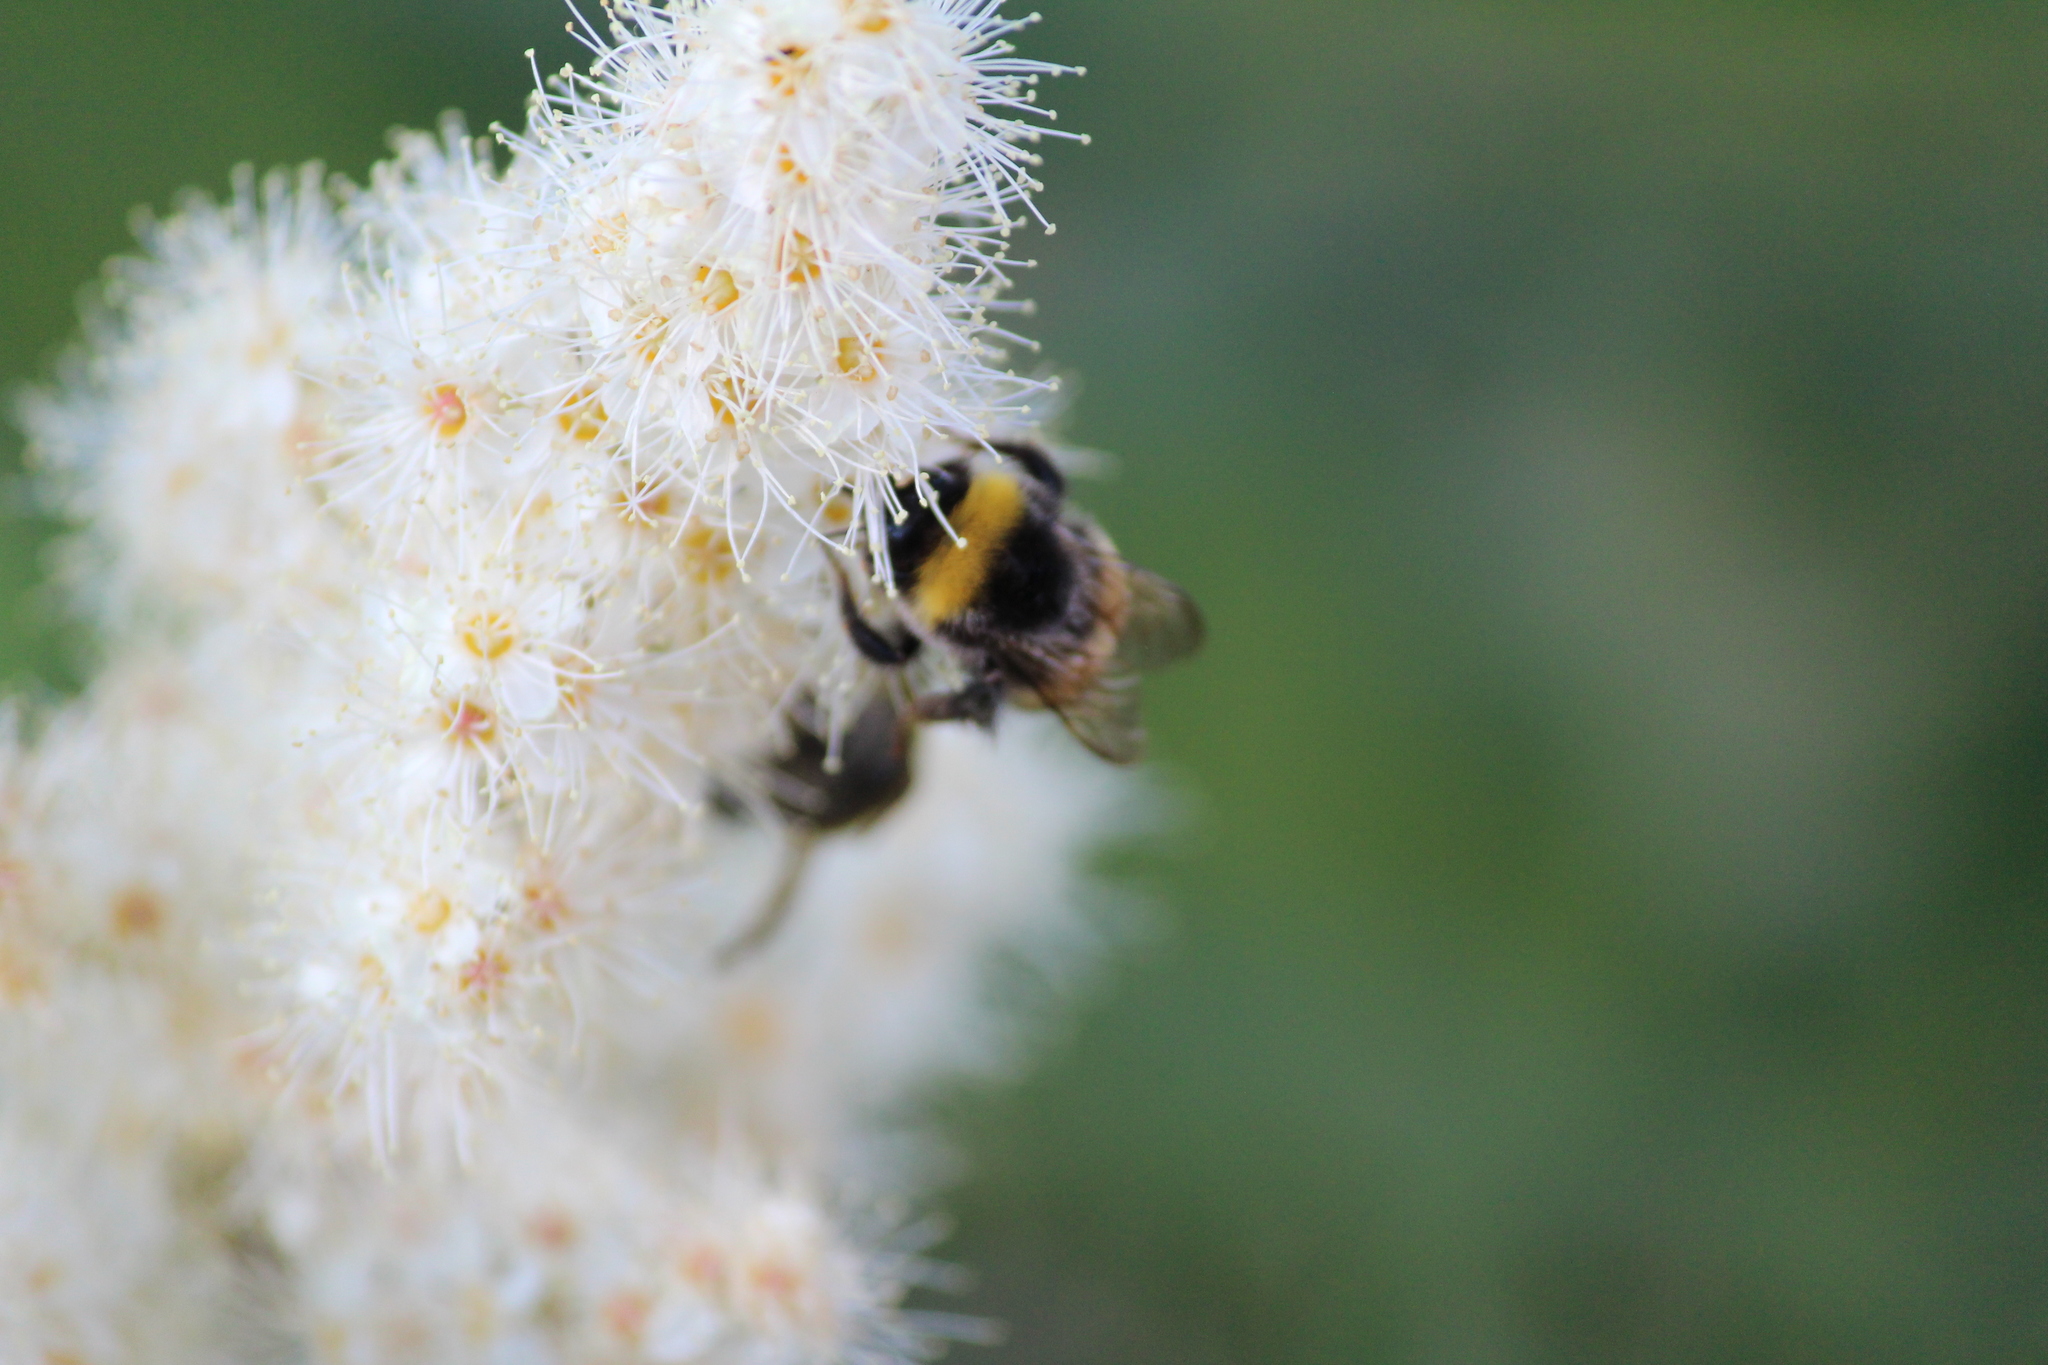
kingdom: Animalia
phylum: Arthropoda
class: Insecta
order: Hymenoptera
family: Apidae
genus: Bombus
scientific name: Bombus
